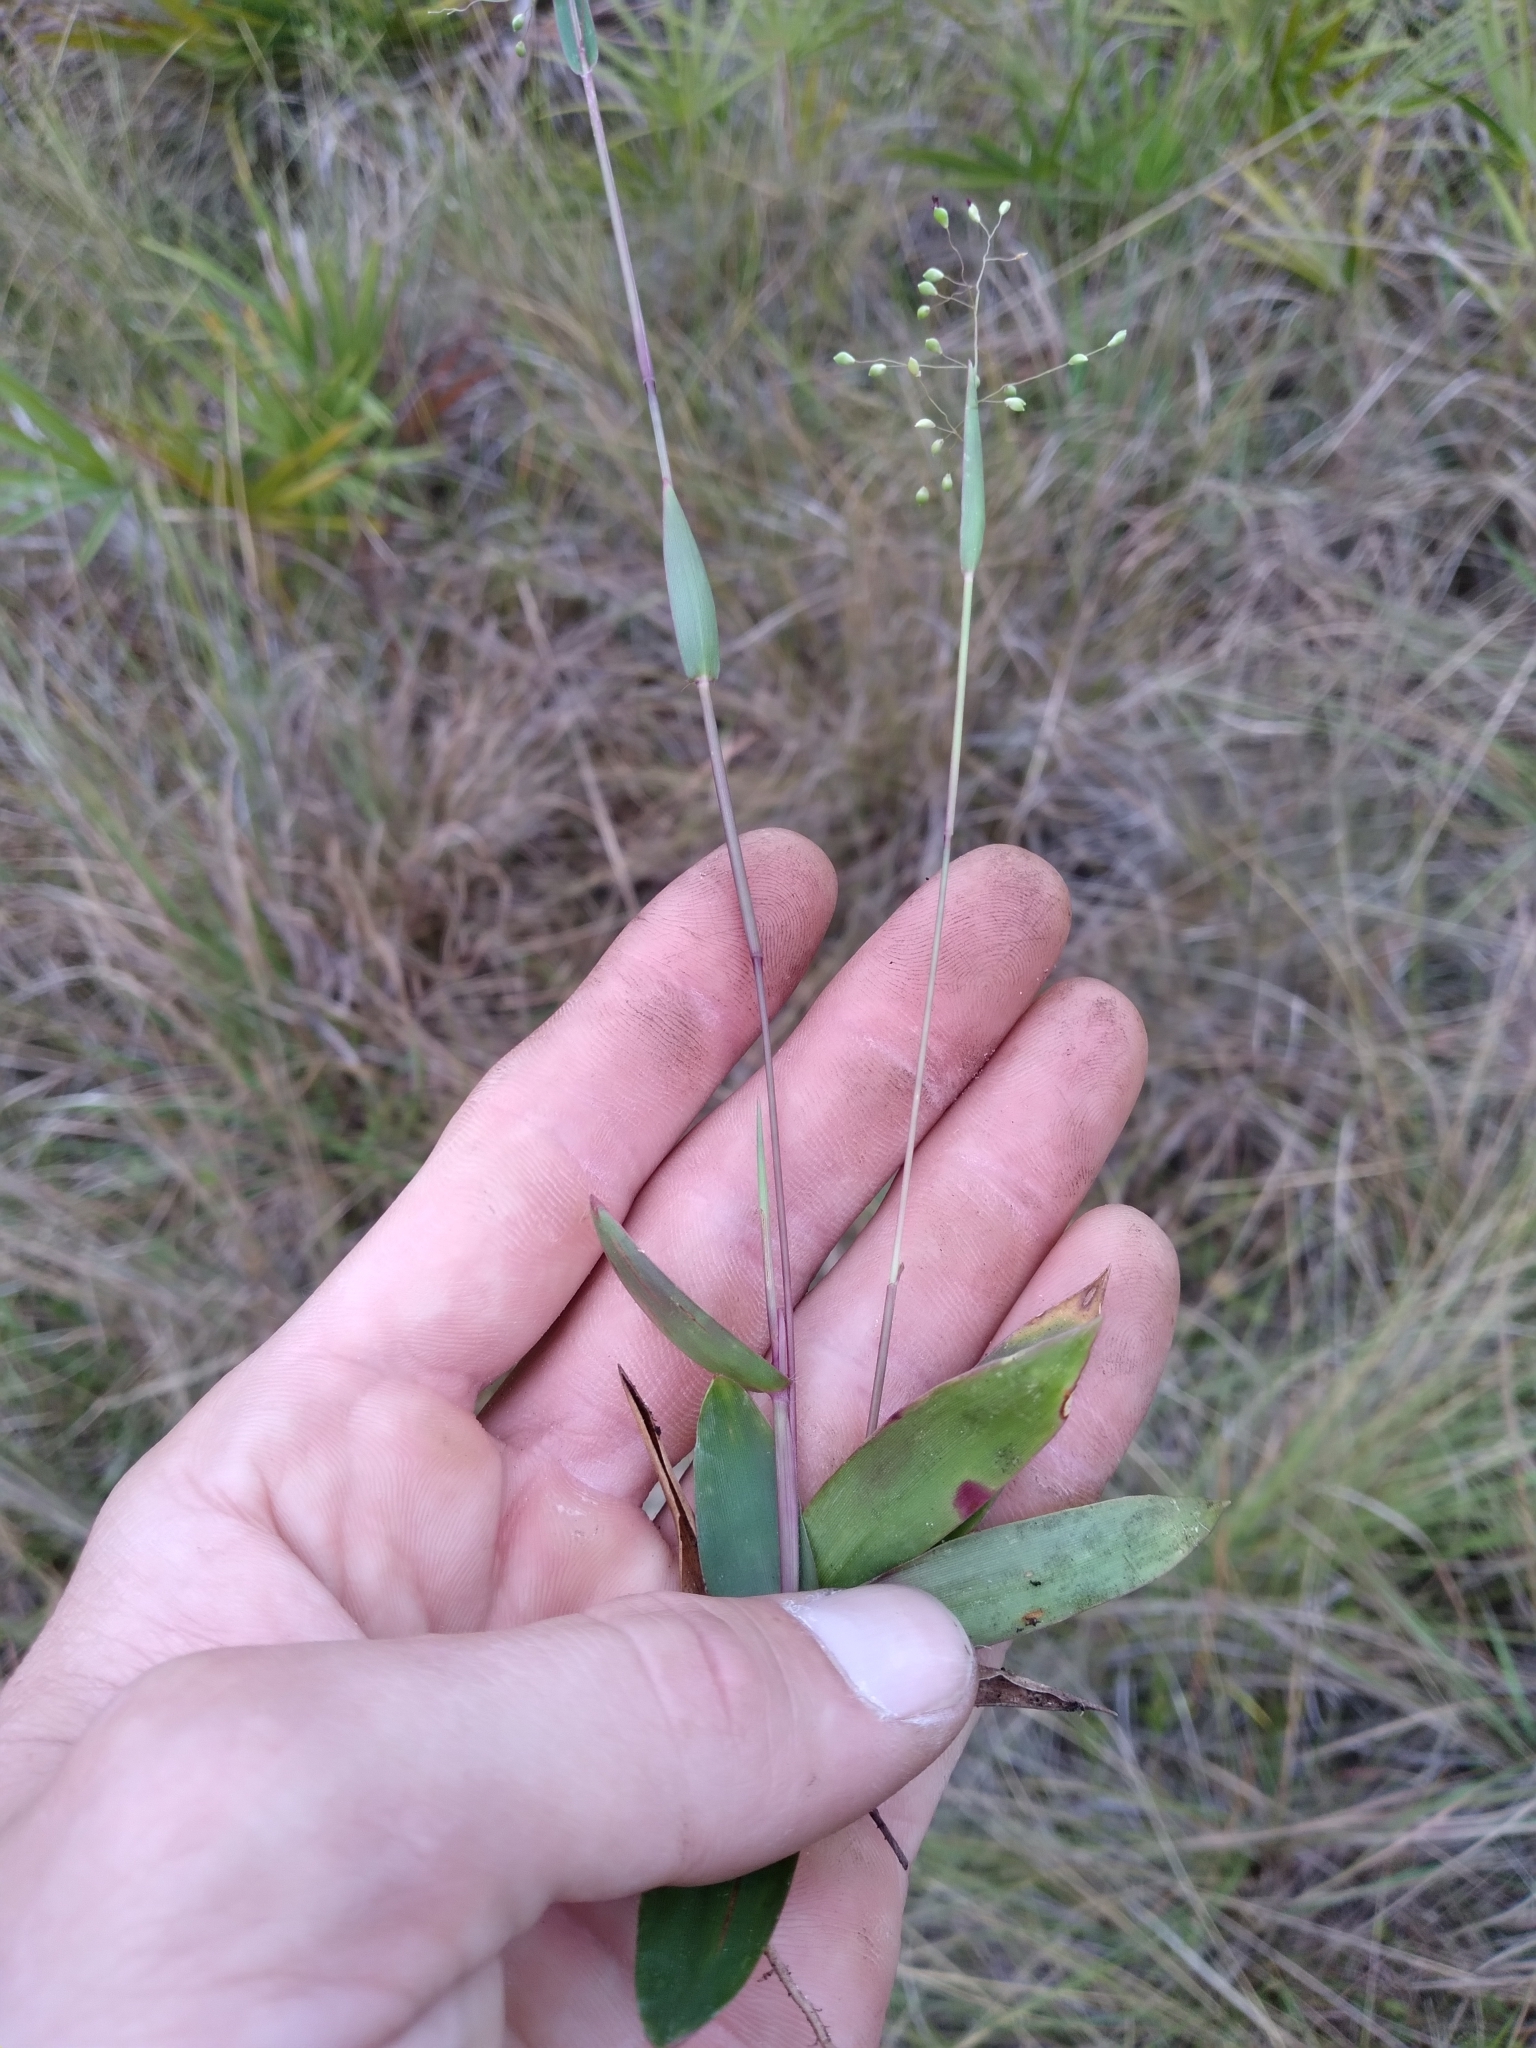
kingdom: Plantae
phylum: Tracheophyta
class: Liliopsida
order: Poales
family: Poaceae
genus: Dichanthelium
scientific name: Dichanthelium webberianum
